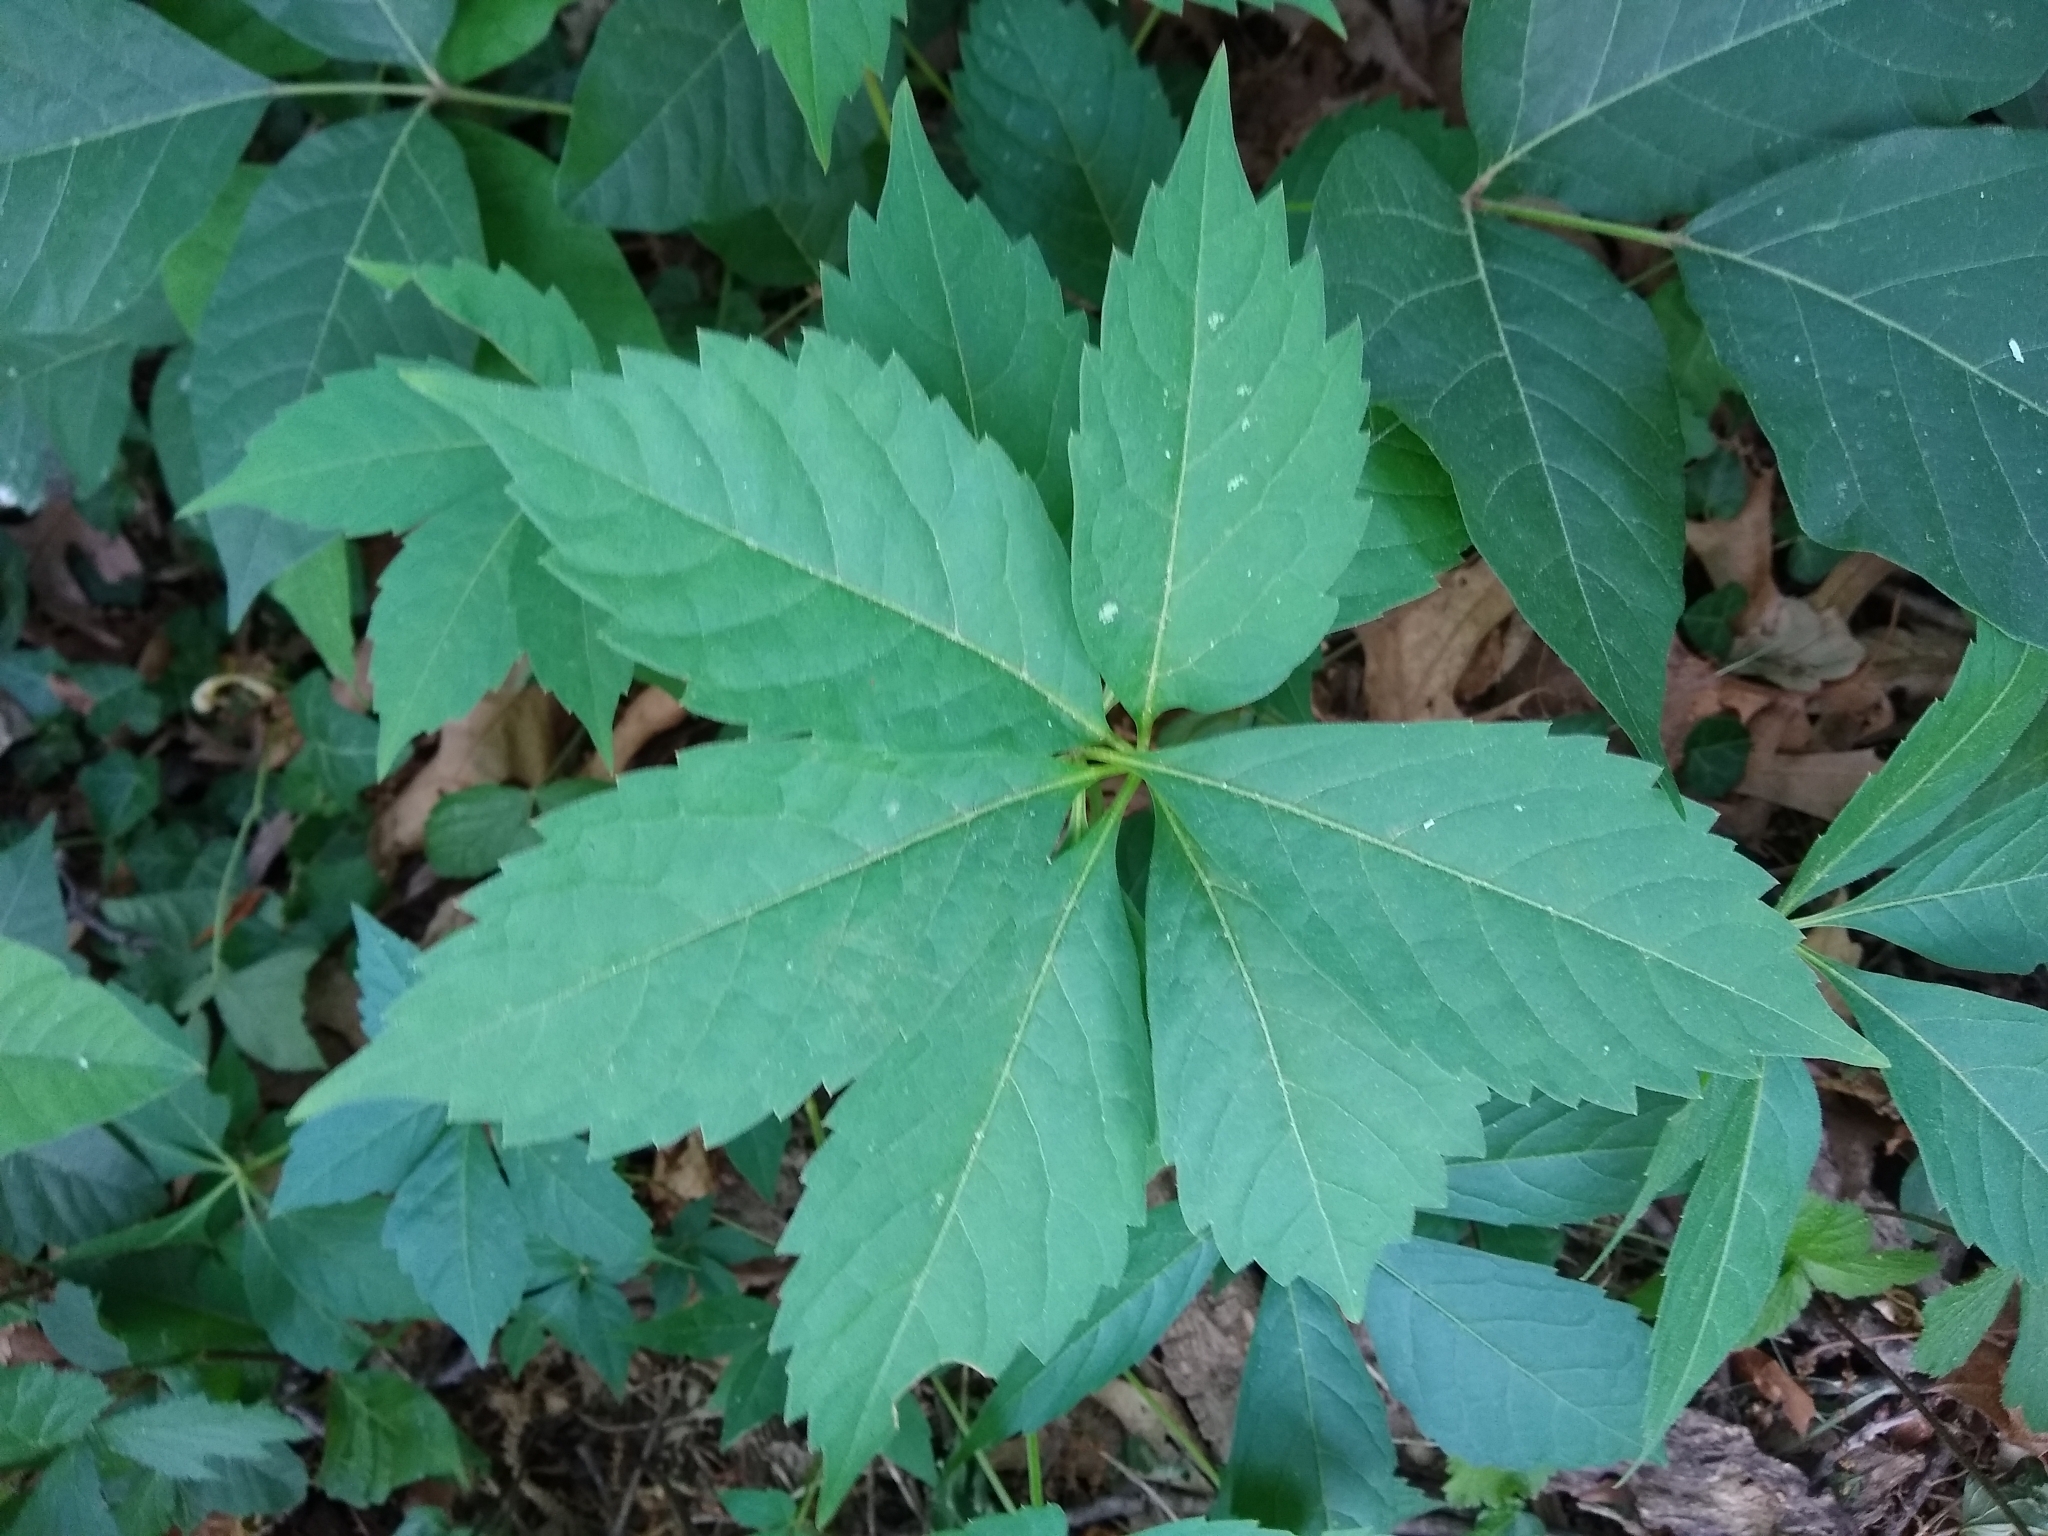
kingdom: Plantae
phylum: Tracheophyta
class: Magnoliopsida
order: Vitales
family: Vitaceae
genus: Parthenocissus
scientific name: Parthenocissus quinquefolia
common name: Virginia-creeper
